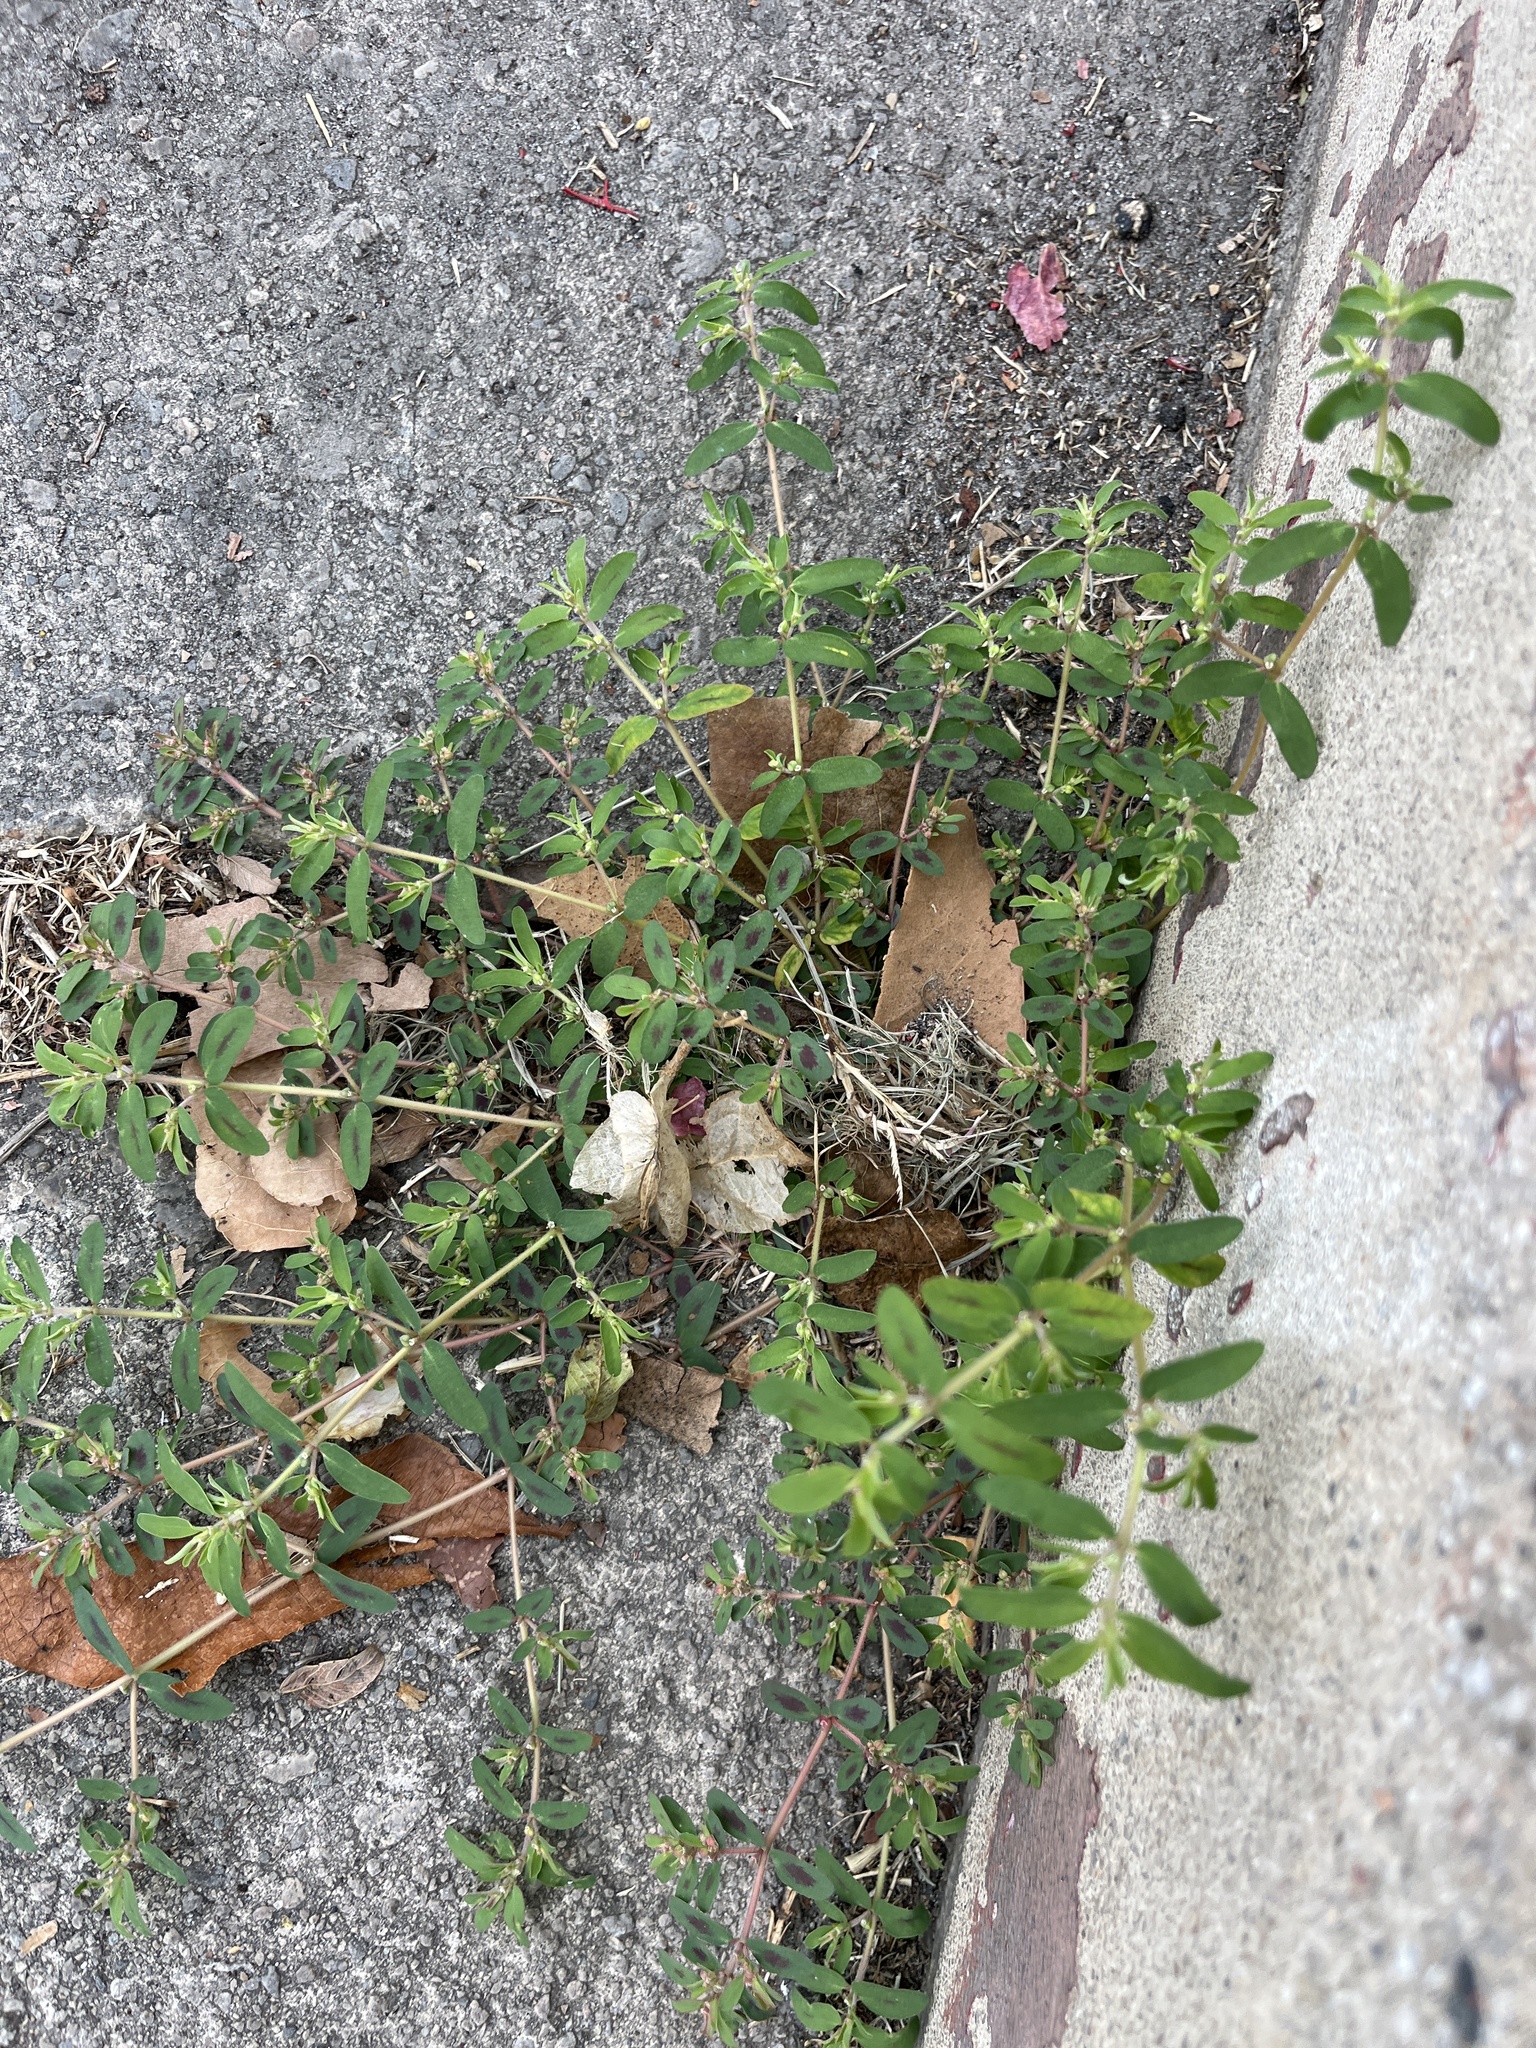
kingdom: Plantae
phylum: Tracheophyta
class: Magnoliopsida
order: Malpighiales
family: Euphorbiaceae
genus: Euphorbia
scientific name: Euphorbia maculata
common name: Spotted spurge
